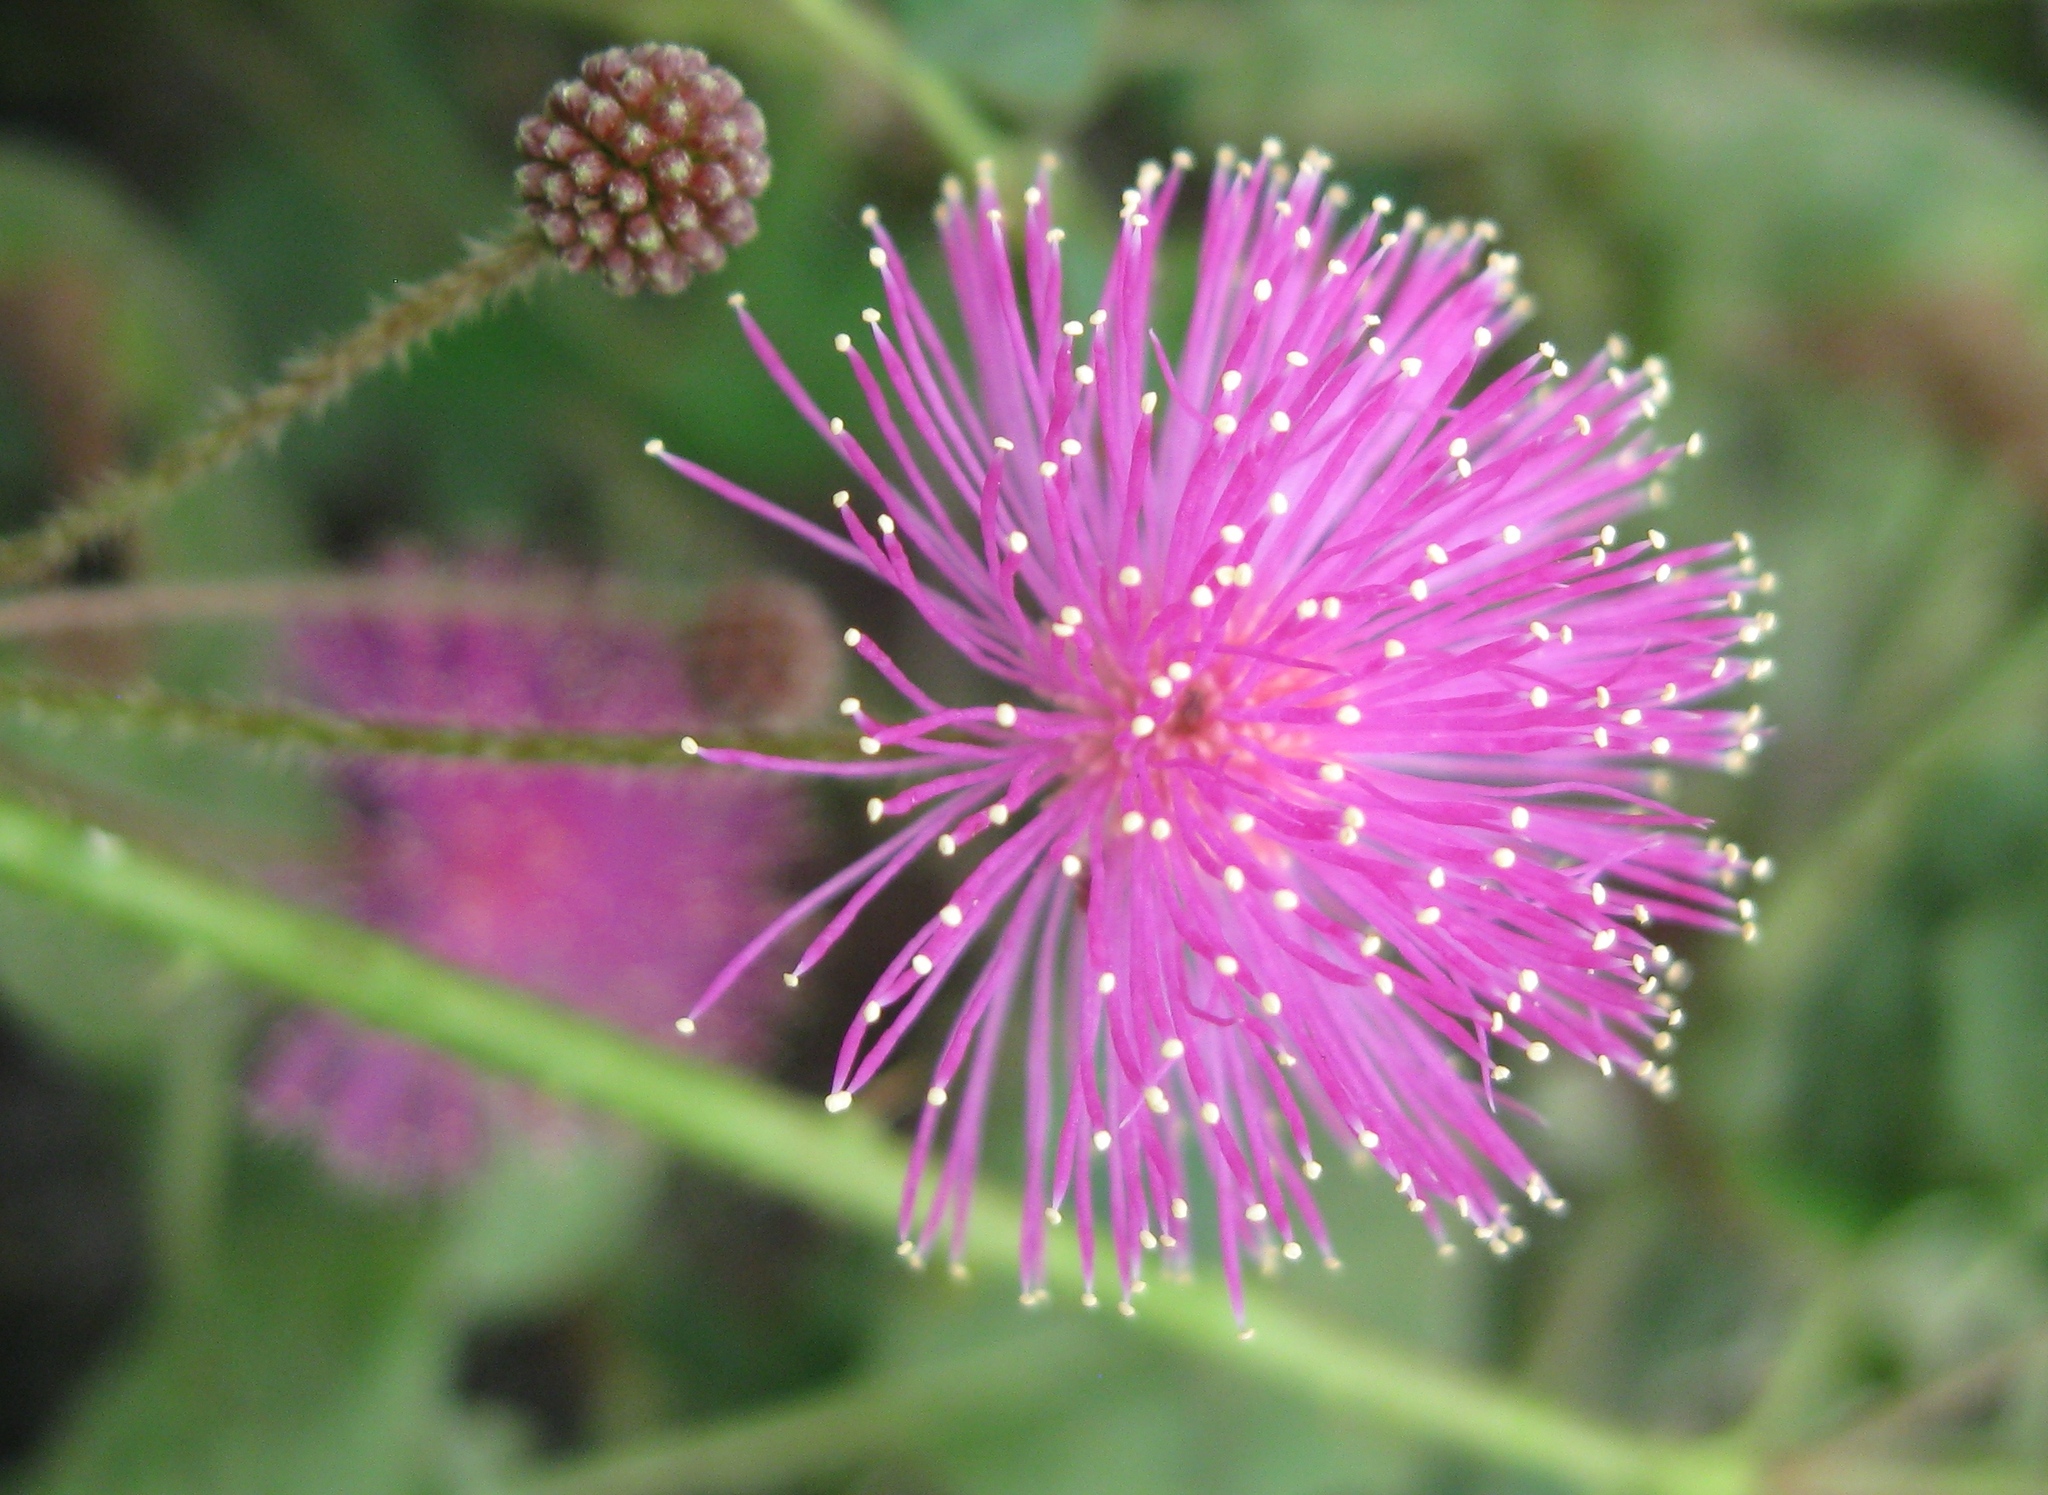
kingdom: Plantae
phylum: Tracheophyta
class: Magnoliopsida
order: Fabales
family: Fabaceae
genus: Mimosa
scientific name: Mimosa albida
